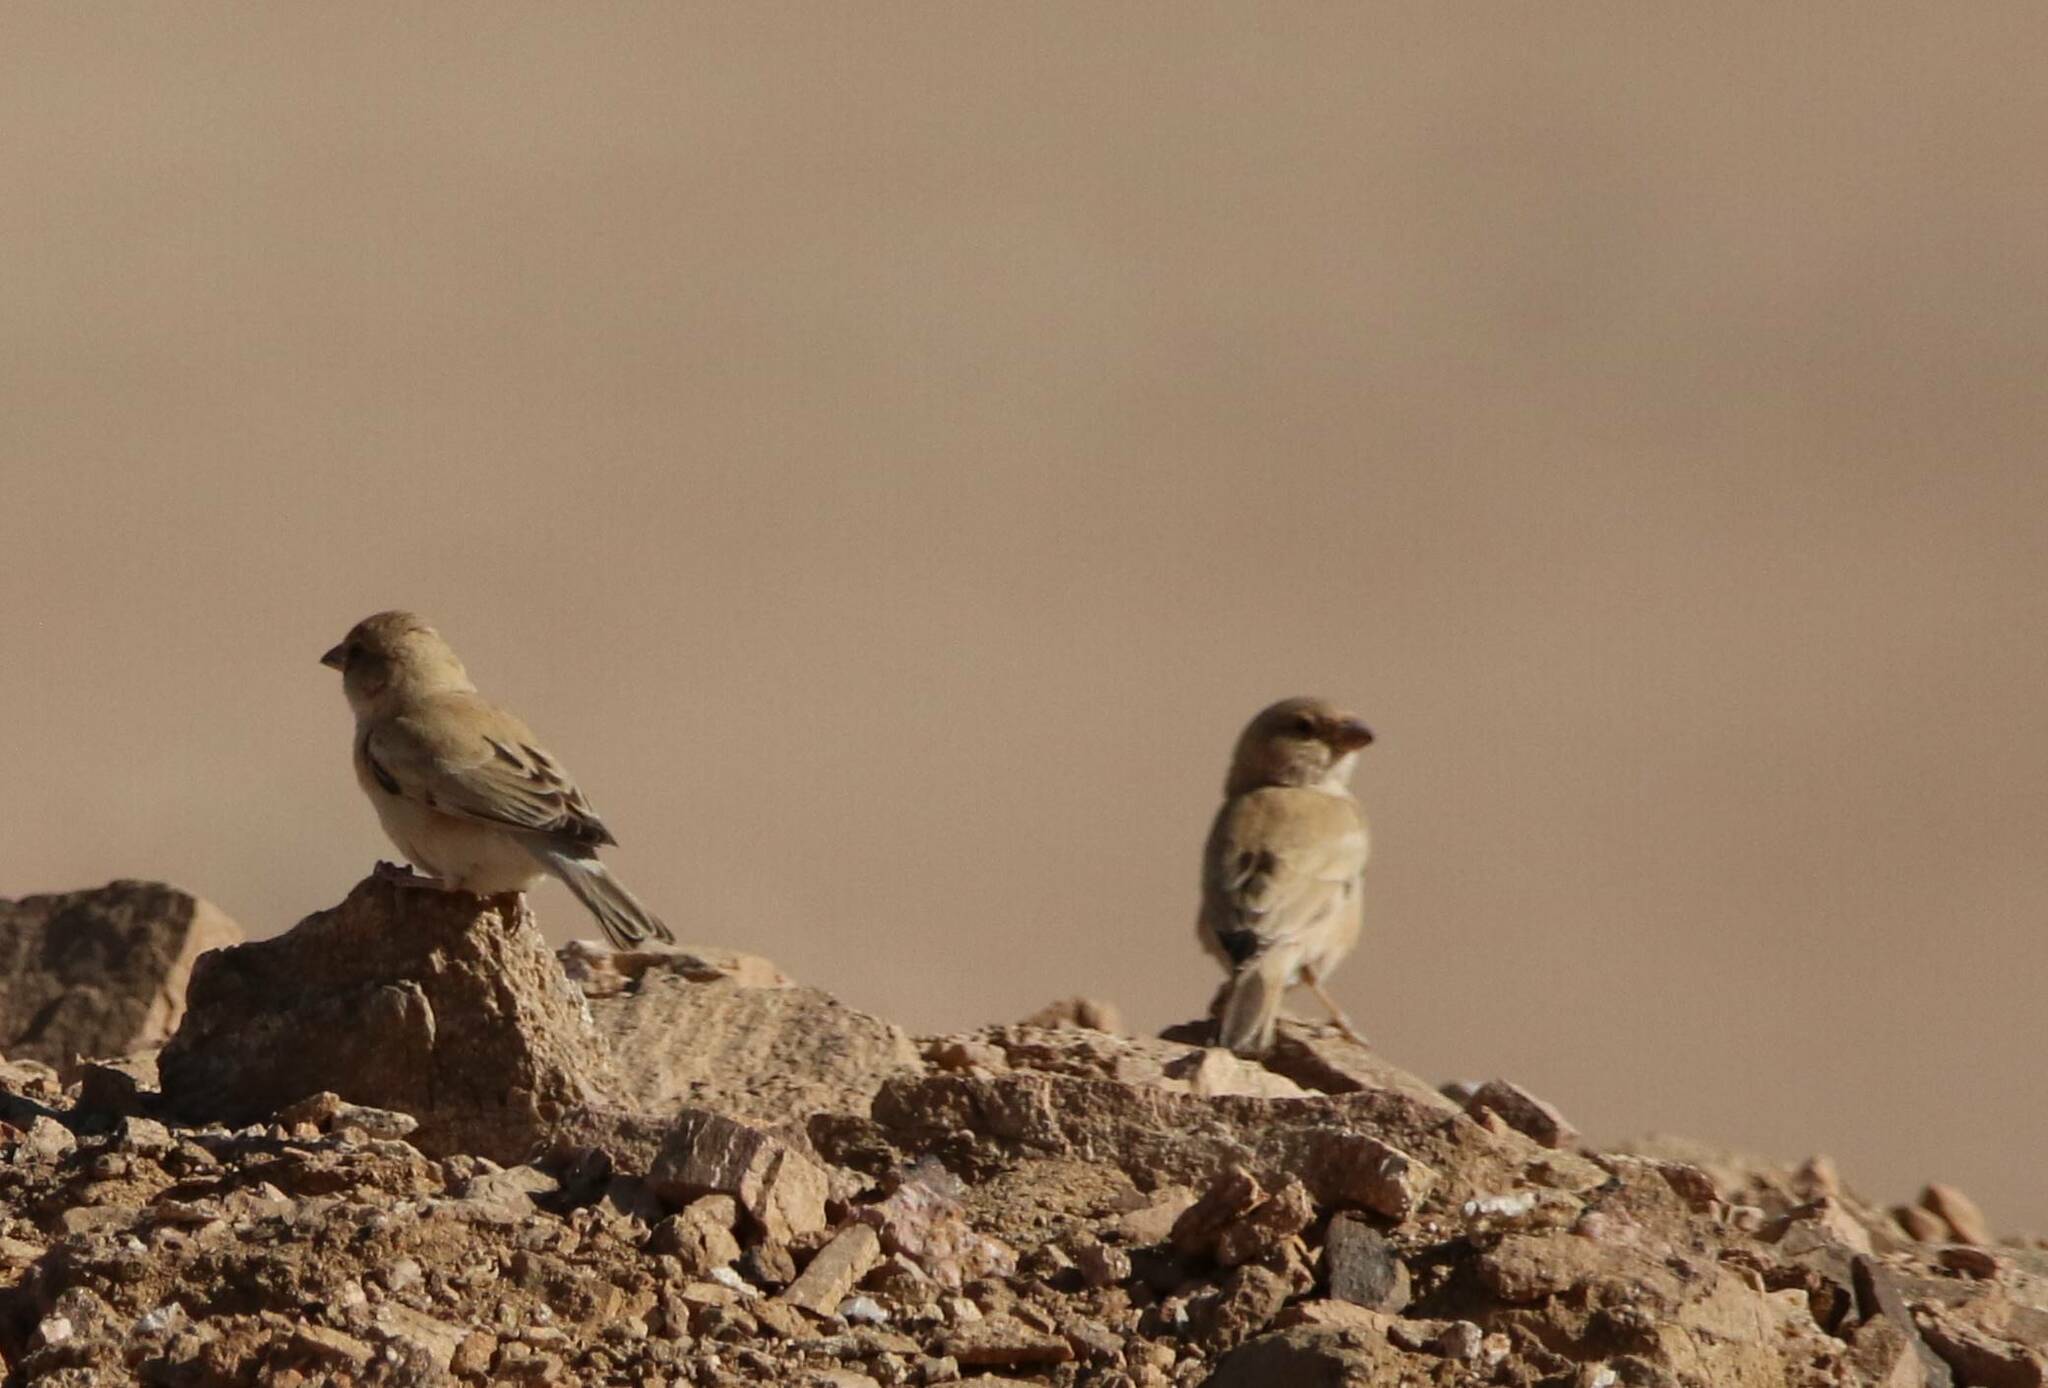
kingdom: Animalia
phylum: Chordata
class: Aves
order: Passeriformes
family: Passeridae
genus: Passer
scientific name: Passer simplex
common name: Desert sparrow
